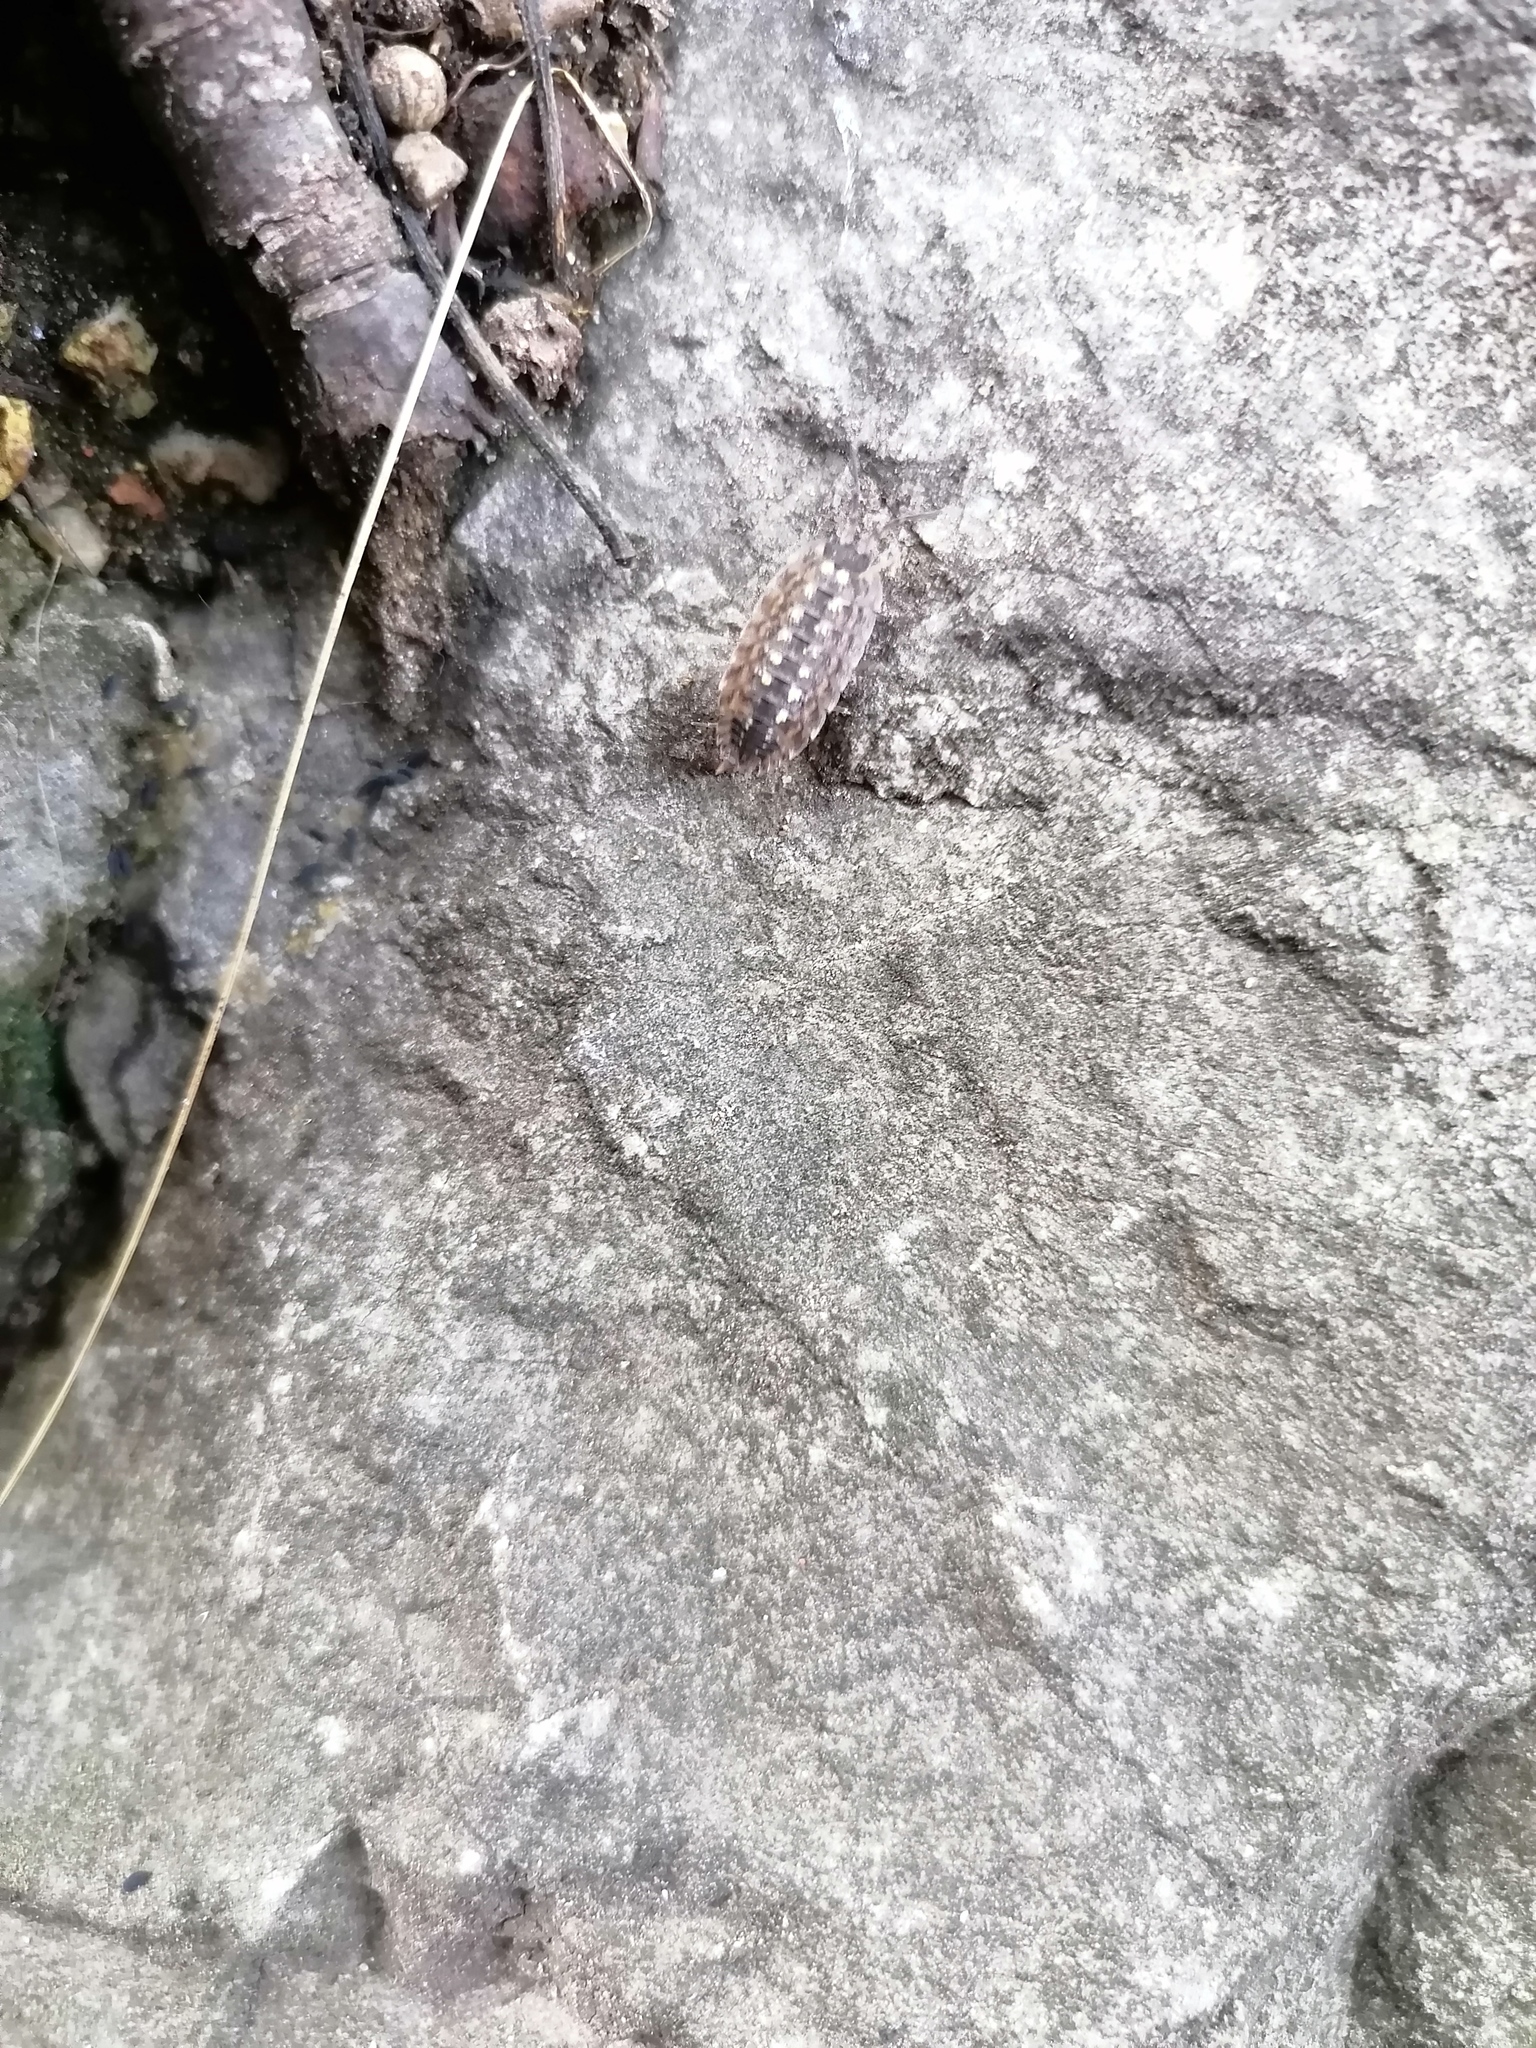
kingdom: Animalia
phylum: Arthropoda
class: Malacostraca
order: Isopoda
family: Porcellionidae
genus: Porcellio
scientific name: Porcellio spinicornis
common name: Painted woodlouse
